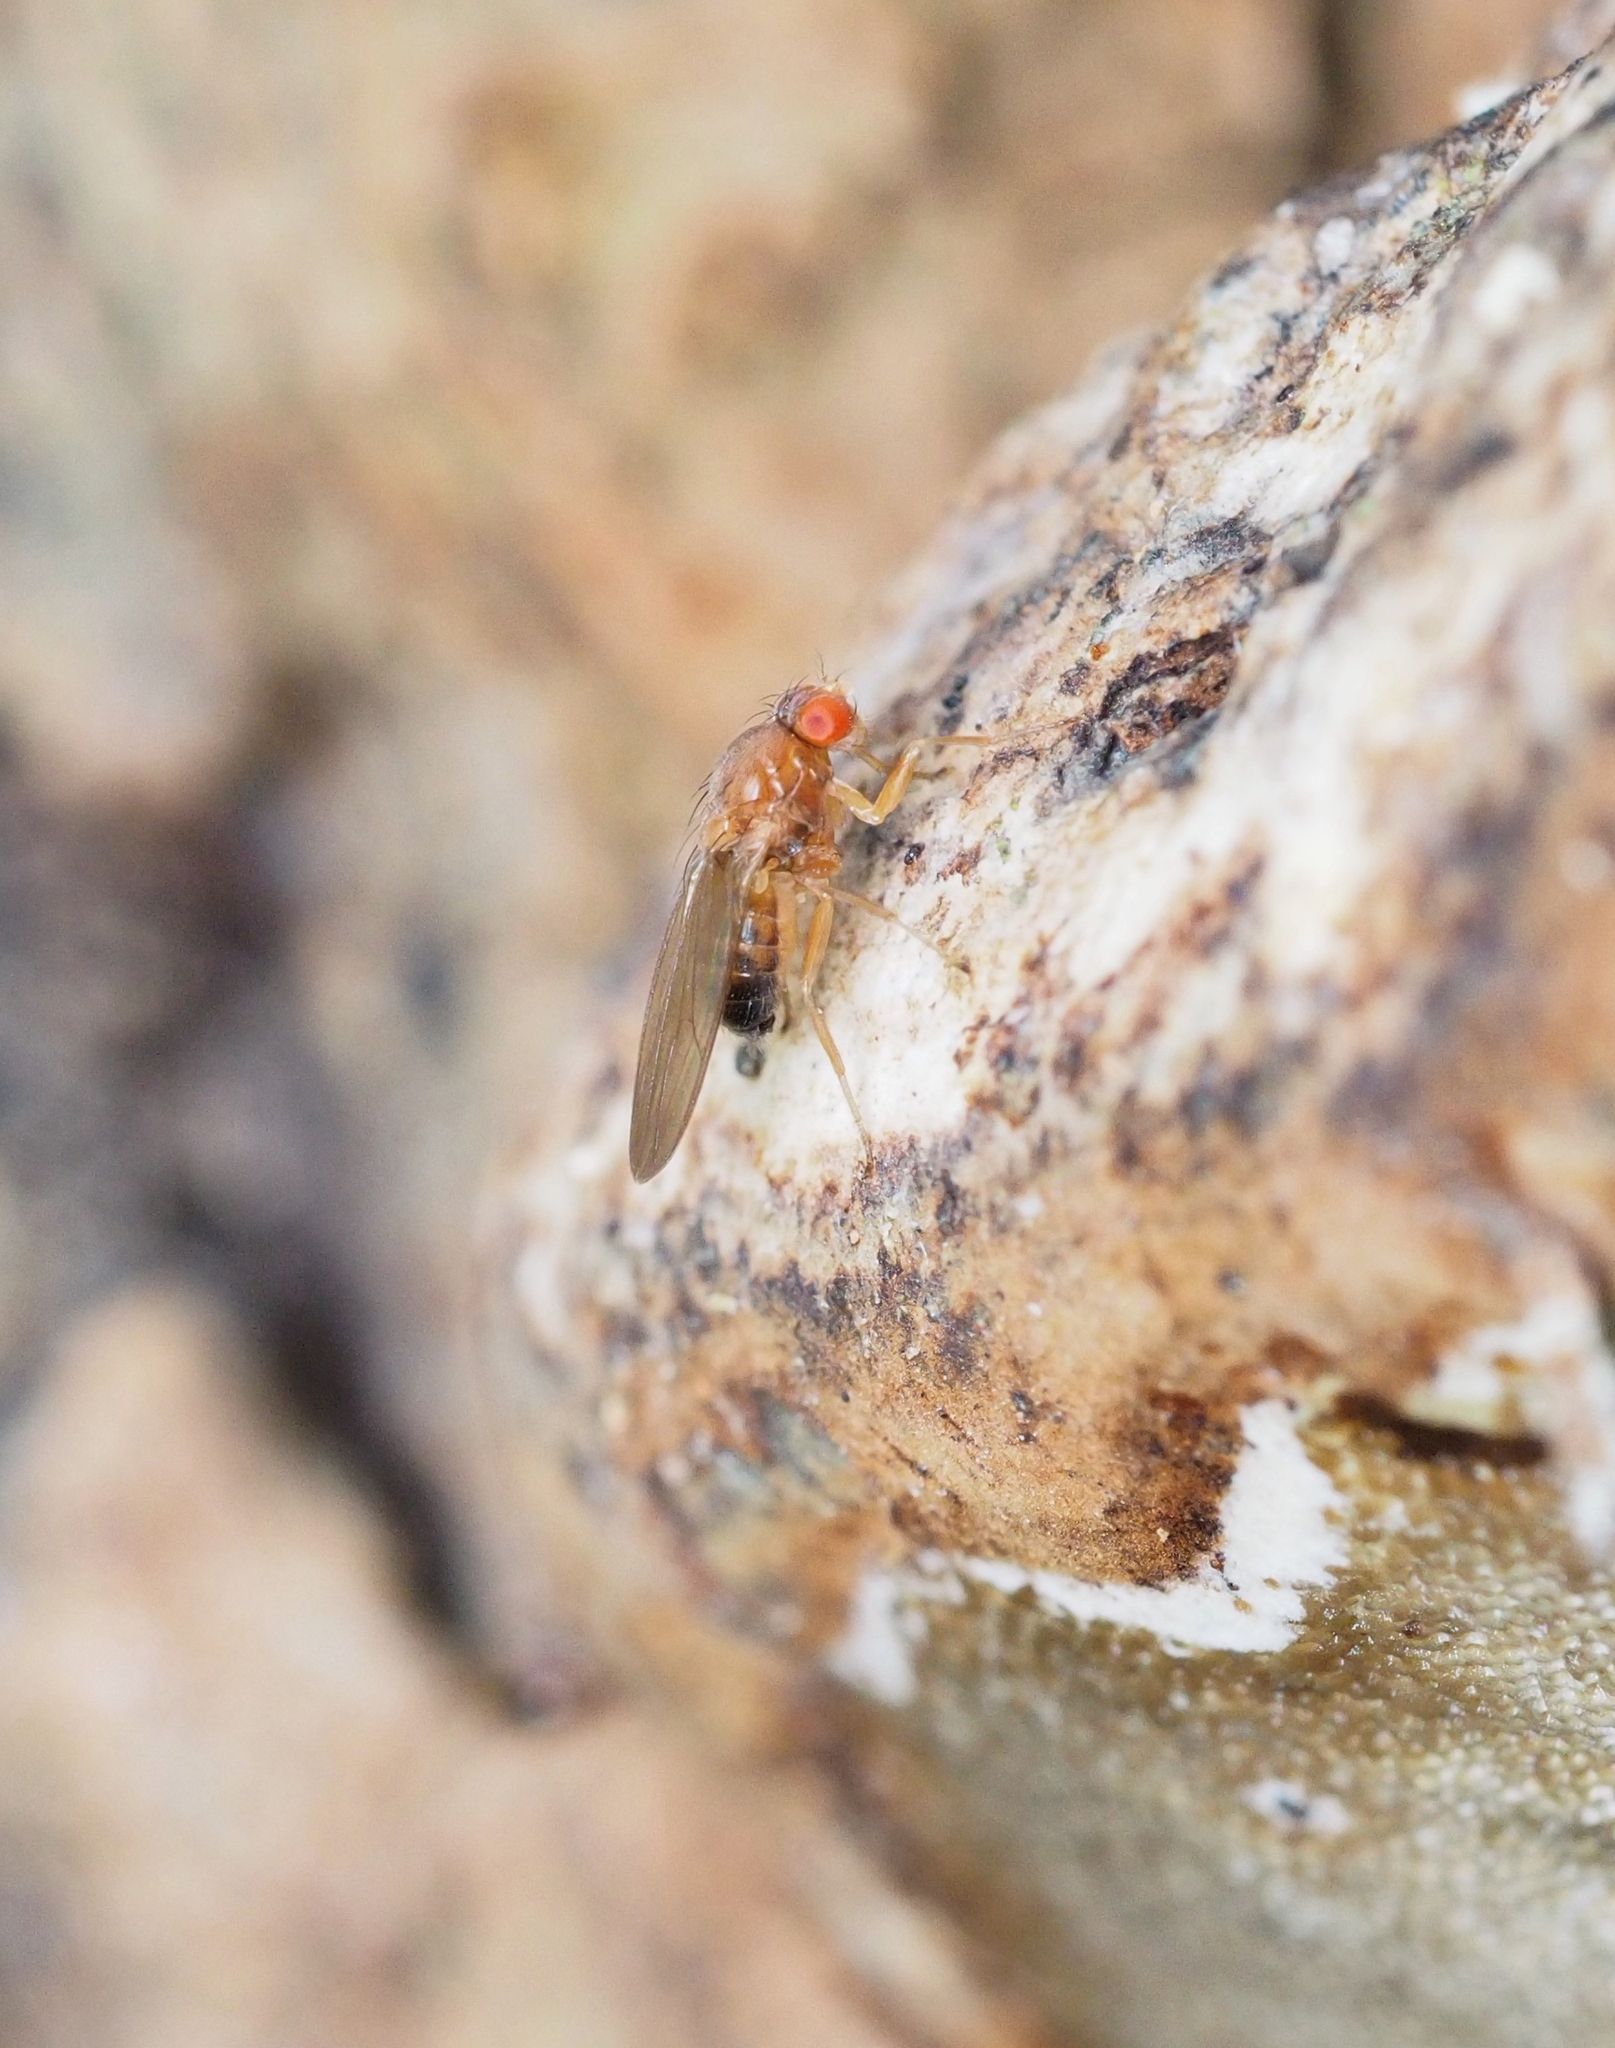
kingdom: Animalia
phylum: Arthropoda
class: Insecta
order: Diptera
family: Drosophilidae
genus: Hirtodrosophila
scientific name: Hirtodrosophila confusa
